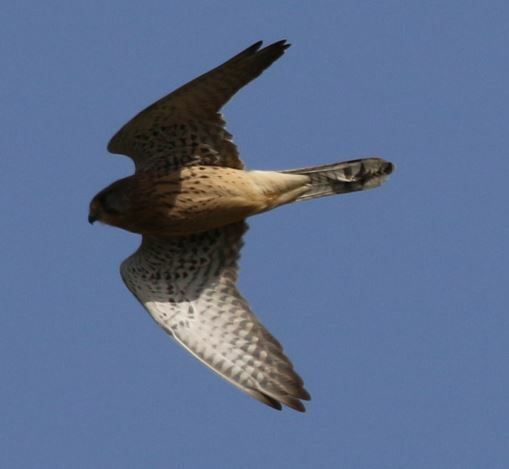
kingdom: Animalia
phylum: Chordata
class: Aves
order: Falconiformes
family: Falconidae
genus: Falco
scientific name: Falco tinnunculus
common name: Common kestrel
